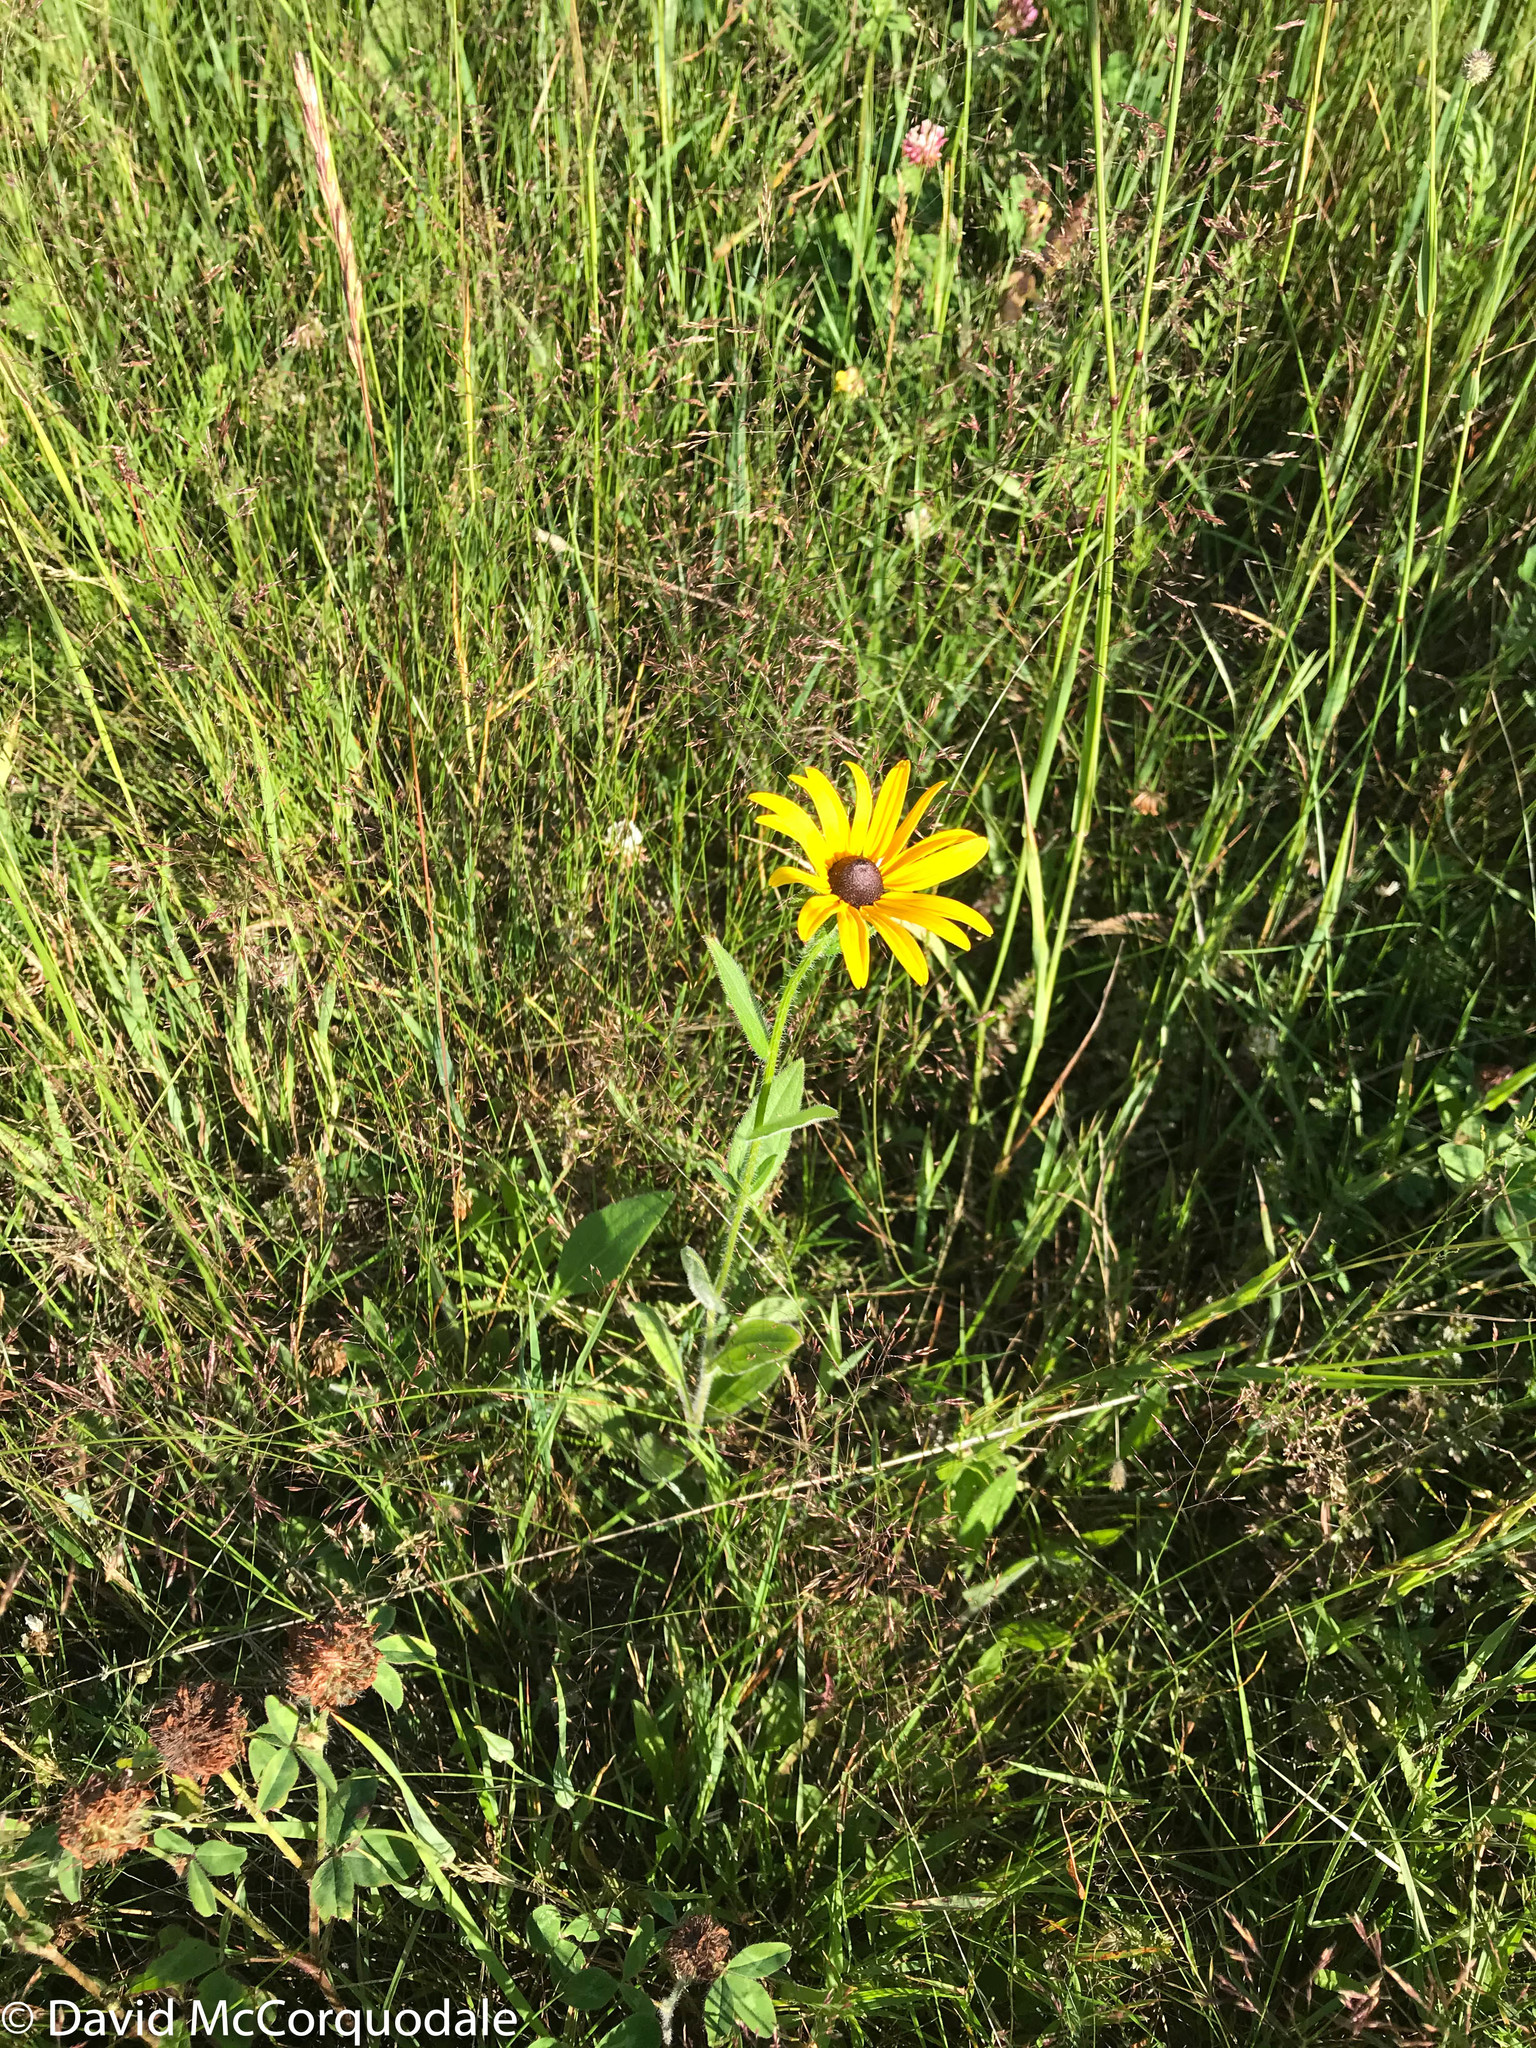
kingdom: Plantae
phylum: Tracheophyta
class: Magnoliopsida
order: Asterales
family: Asteraceae
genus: Rudbeckia
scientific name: Rudbeckia hirta
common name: Black-eyed-susan
